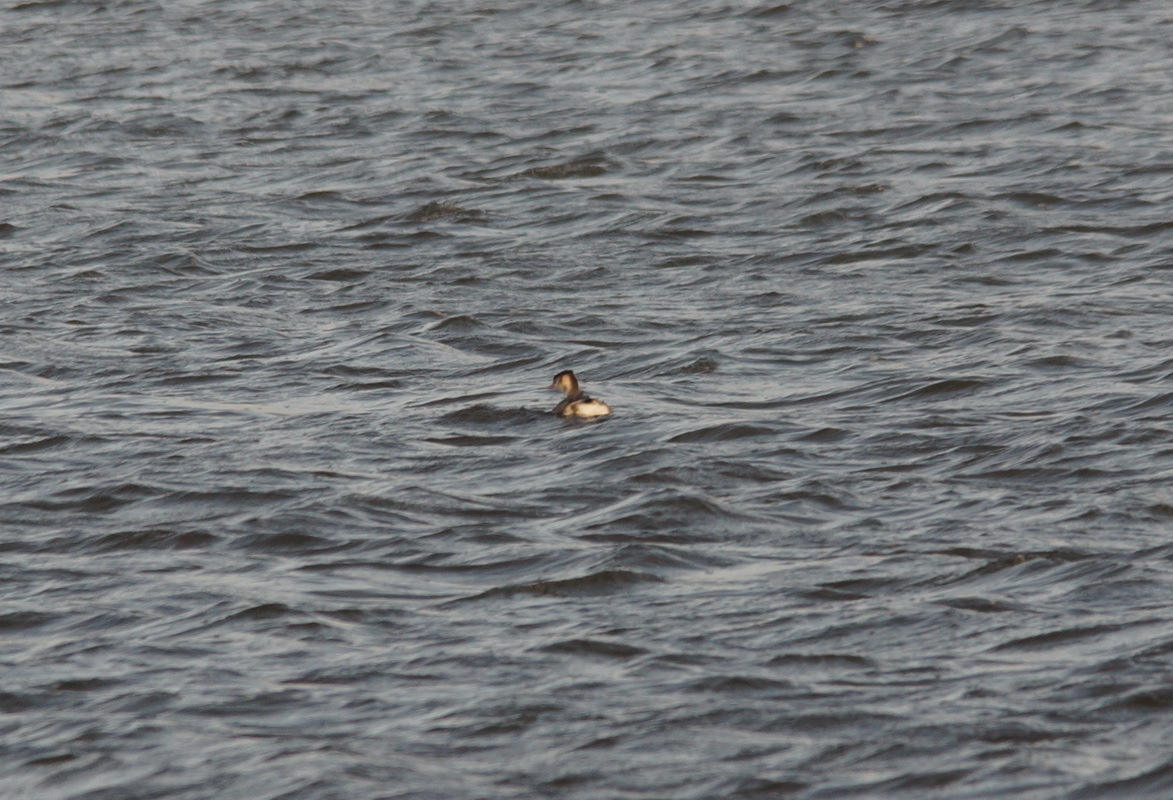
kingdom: Animalia
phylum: Chordata
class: Aves
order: Podicipediformes
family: Podicipedidae
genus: Podiceps
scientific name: Podiceps cristatus
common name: Great crested grebe
